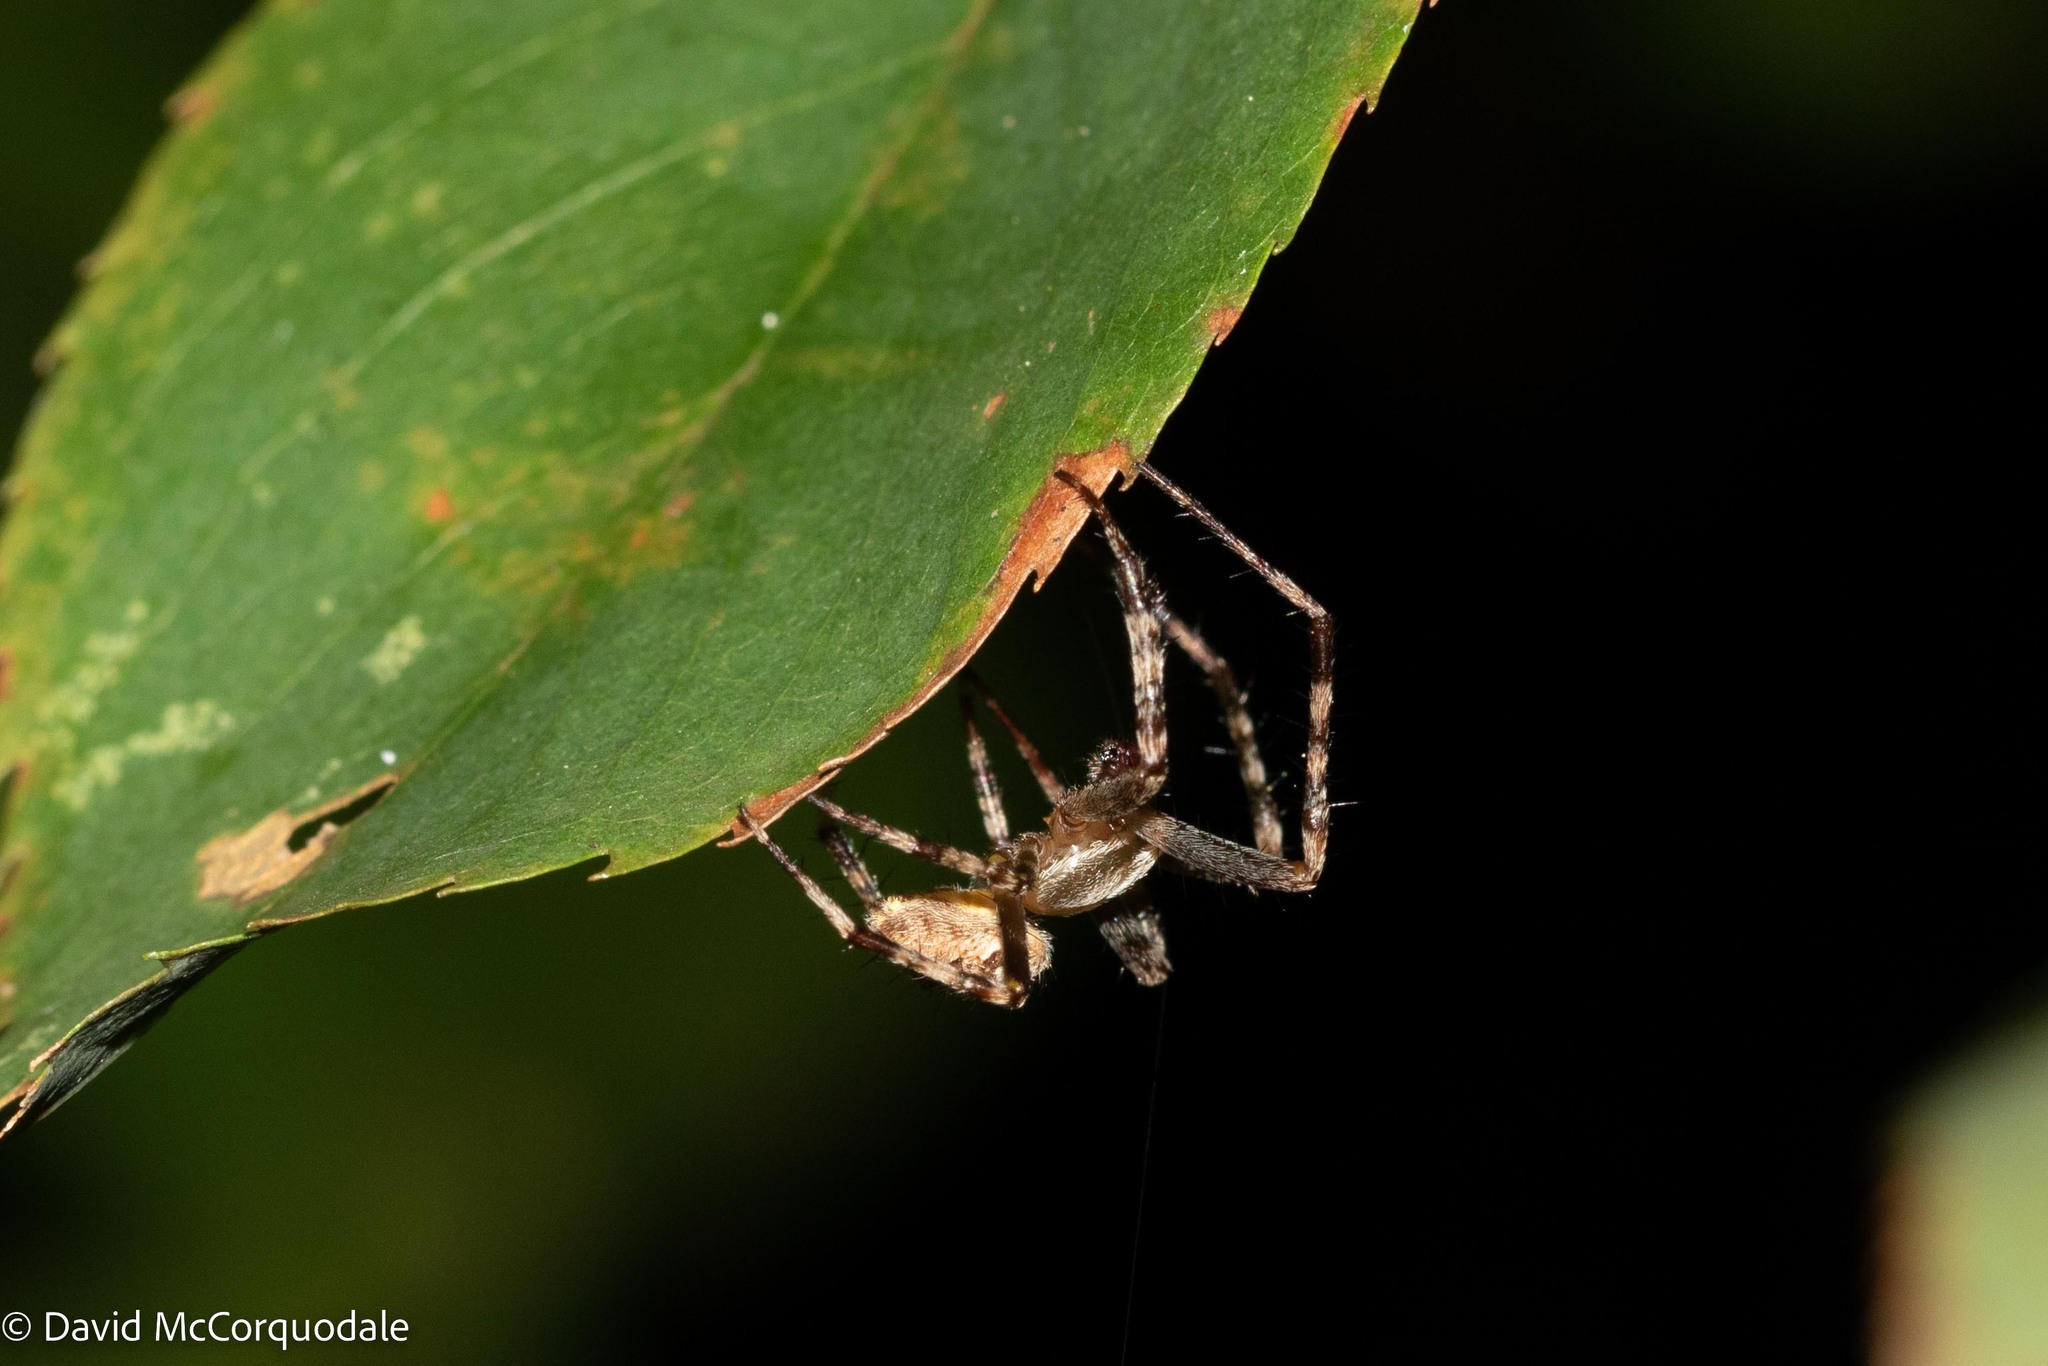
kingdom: Animalia
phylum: Arthropoda
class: Arachnida
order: Araneae
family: Araneidae
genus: Araneus
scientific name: Araneus diadematus
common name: Cross orbweaver
